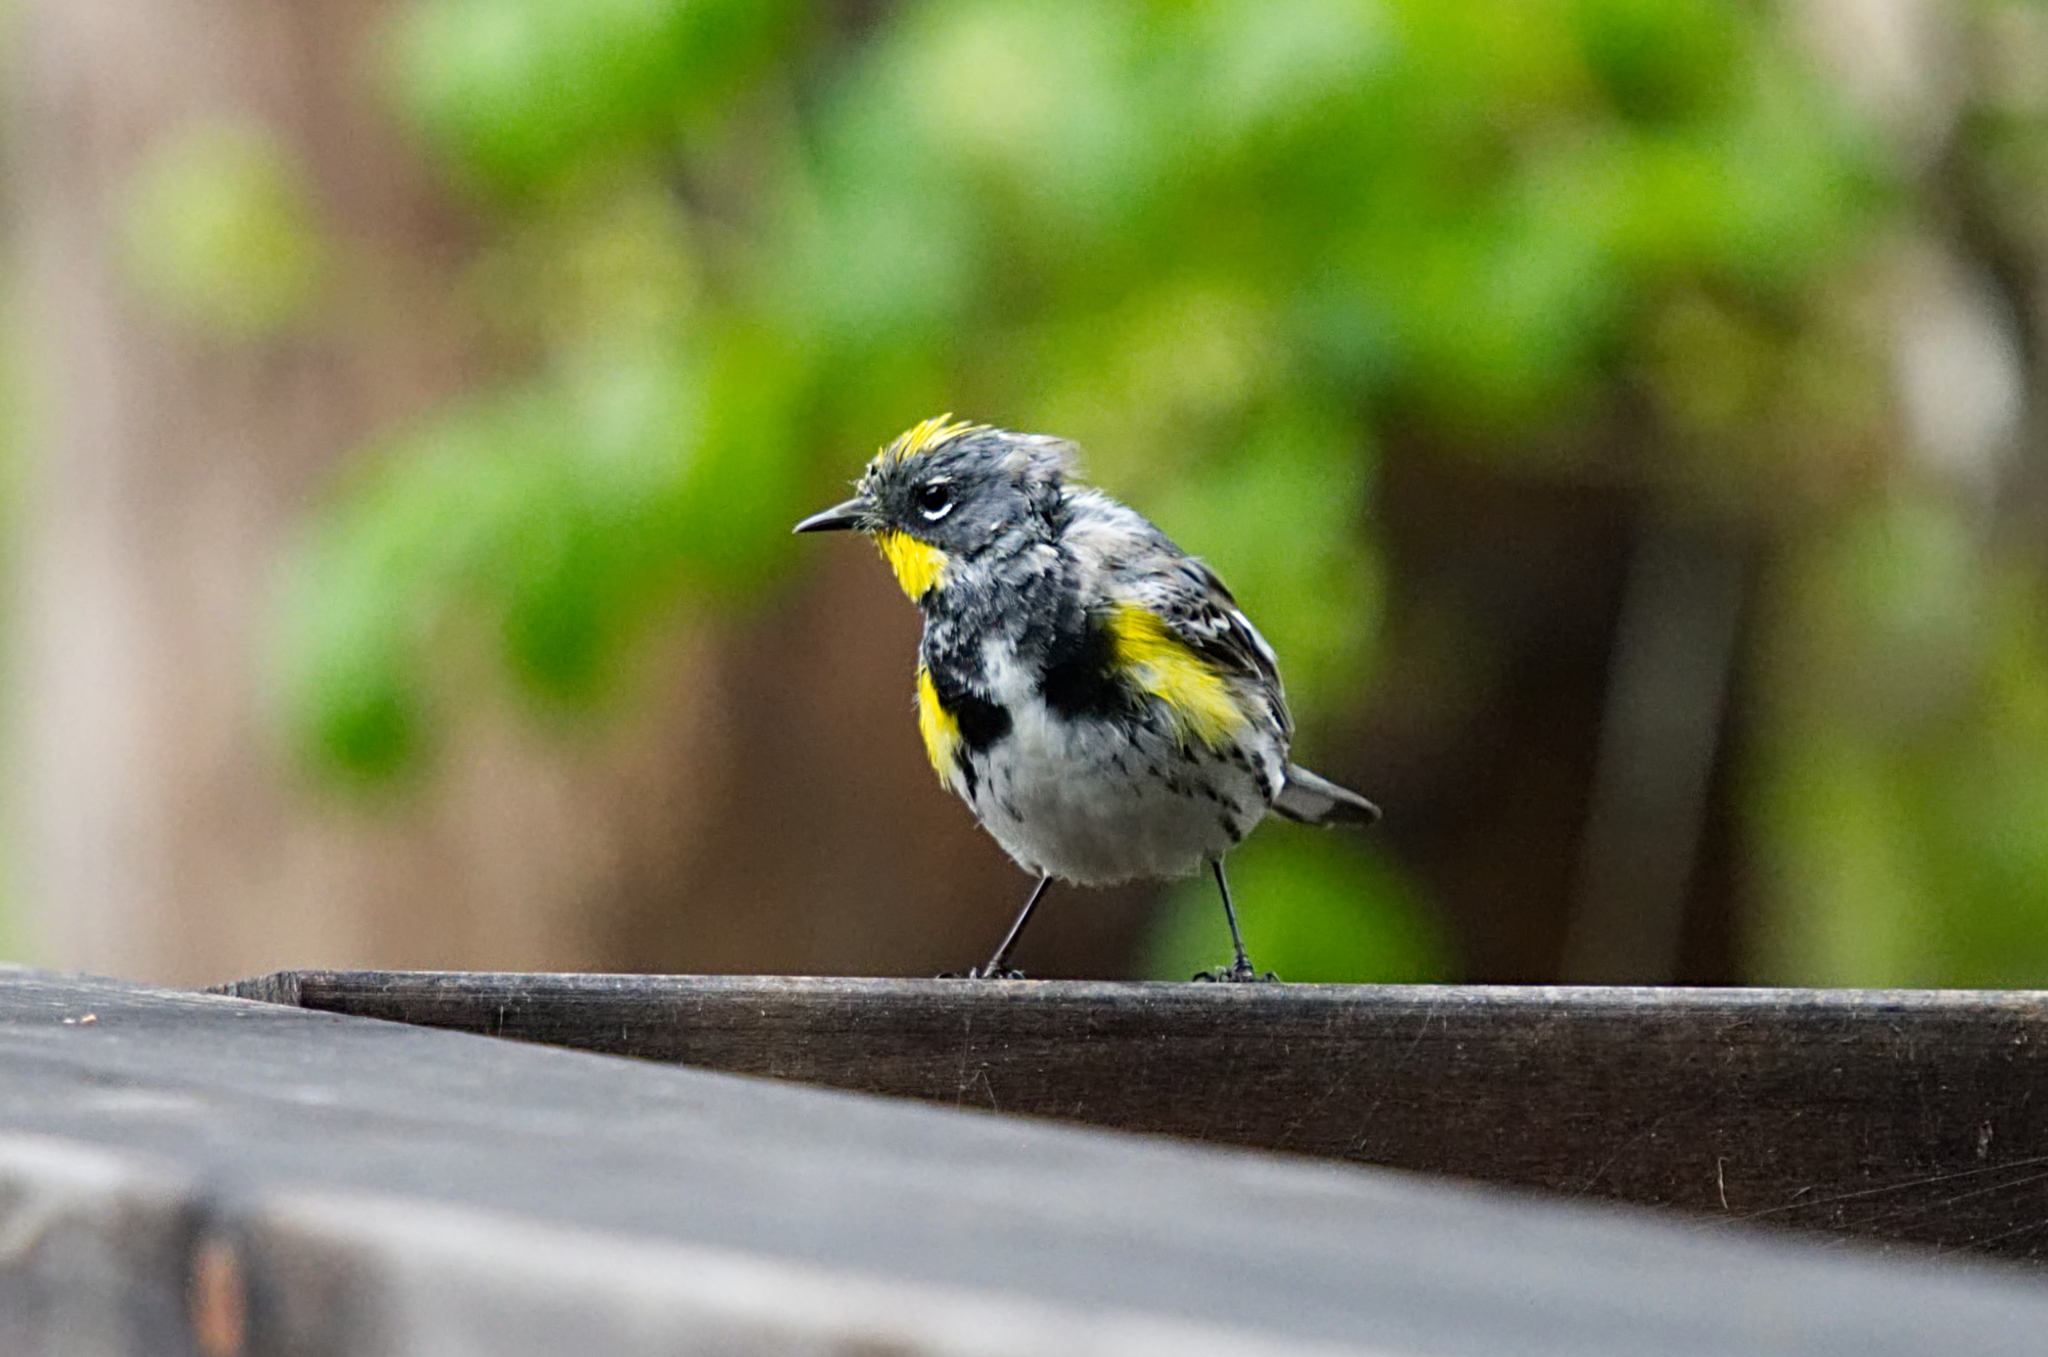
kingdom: Animalia
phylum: Chordata
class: Aves
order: Passeriformes
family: Parulidae
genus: Setophaga
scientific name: Setophaga coronata
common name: Myrtle warbler
